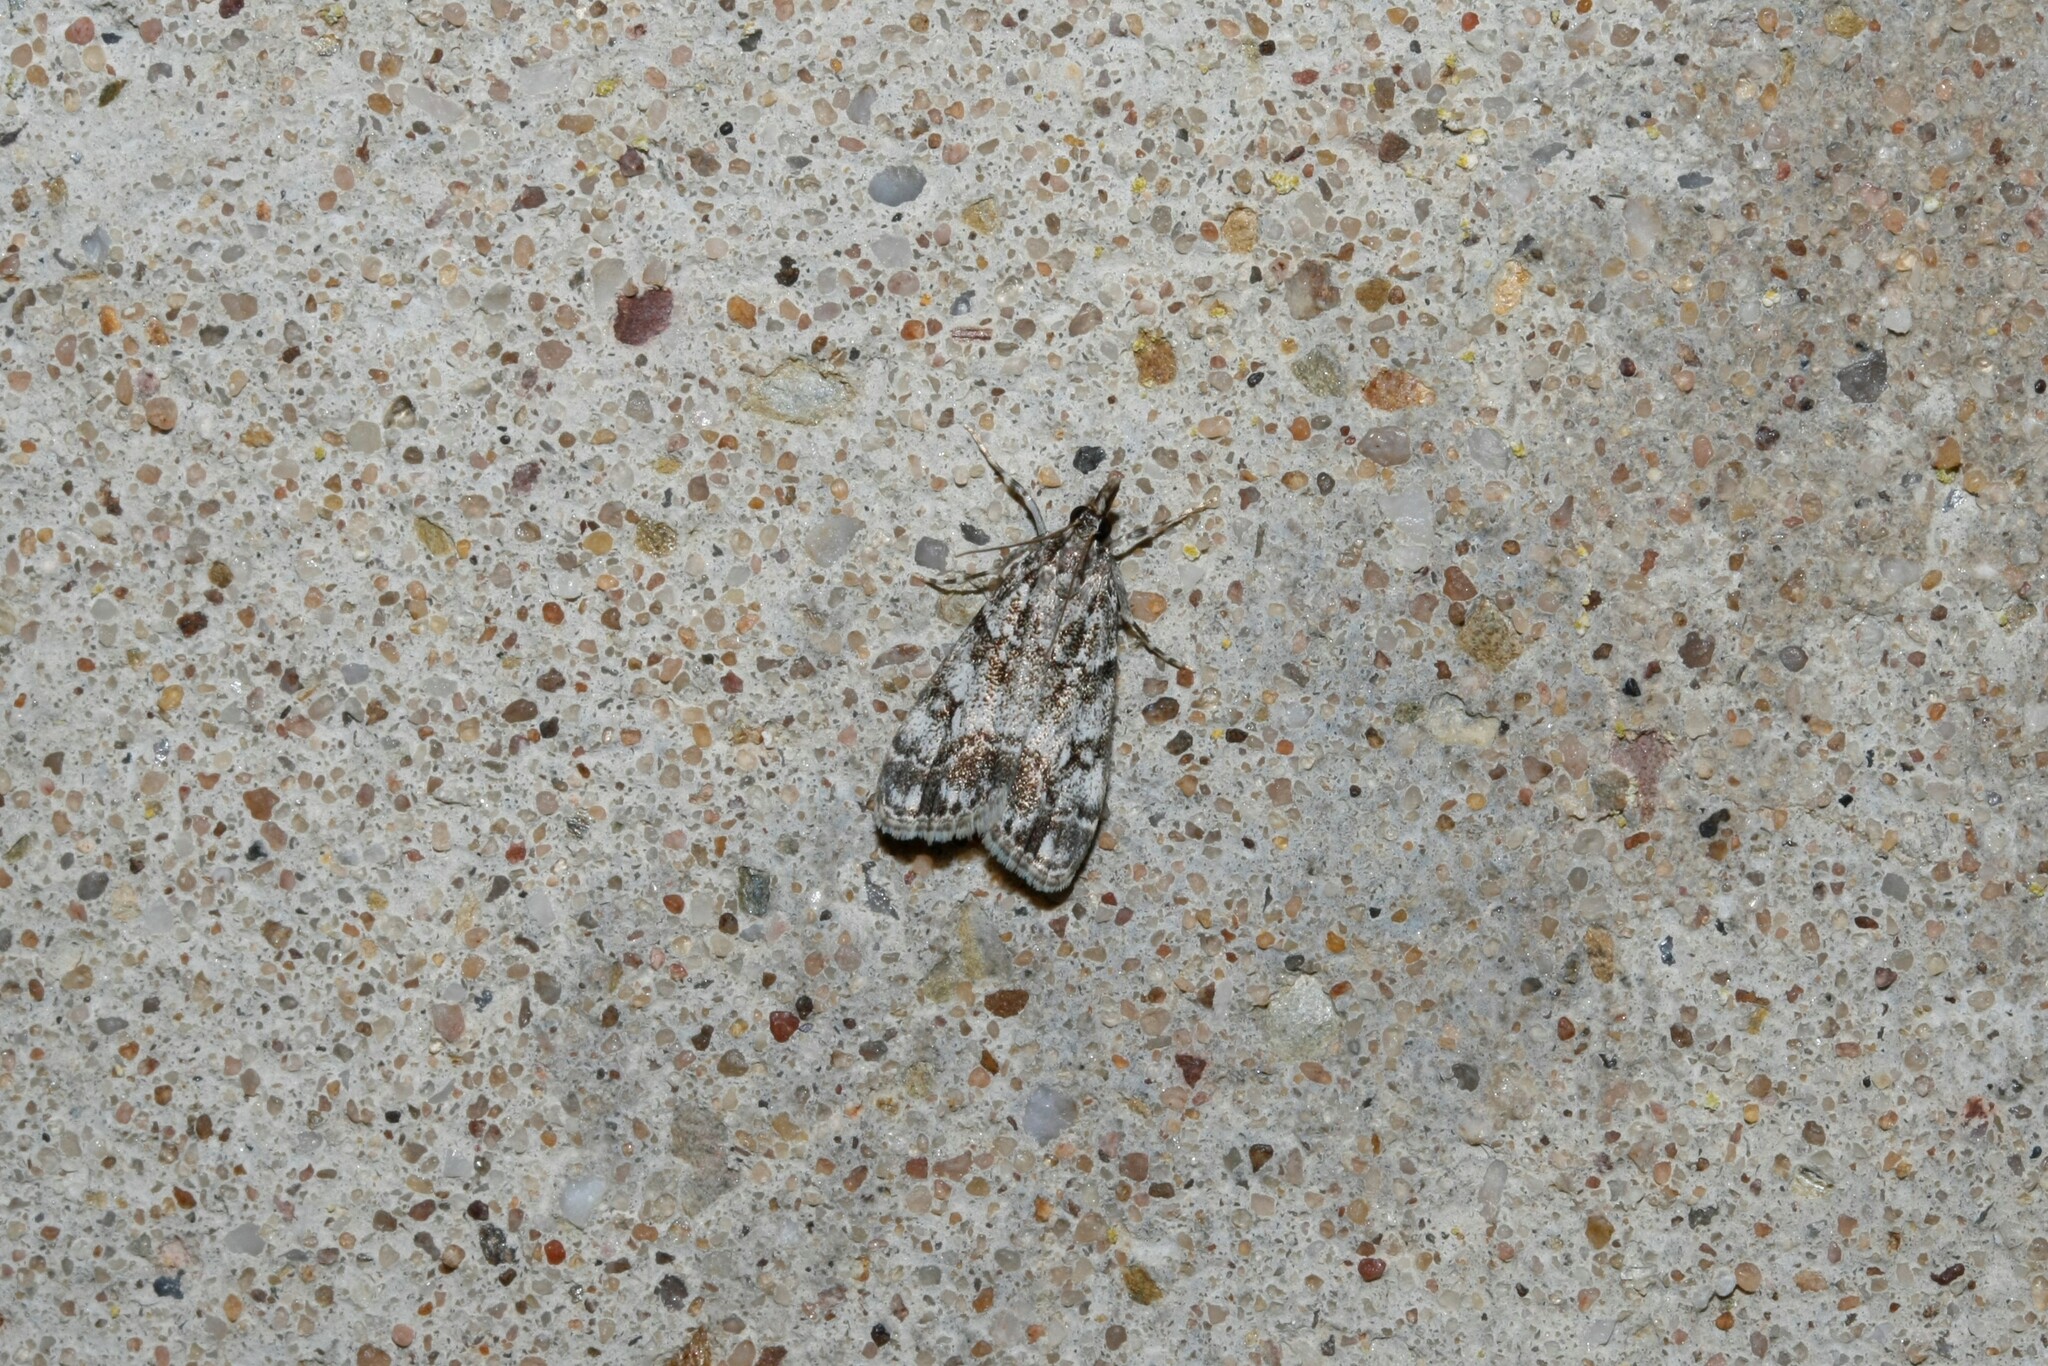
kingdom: Animalia
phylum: Arthropoda
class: Insecta
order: Lepidoptera
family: Crambidae
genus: Eudonia
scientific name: Eudonia lacustrata
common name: Little grey
